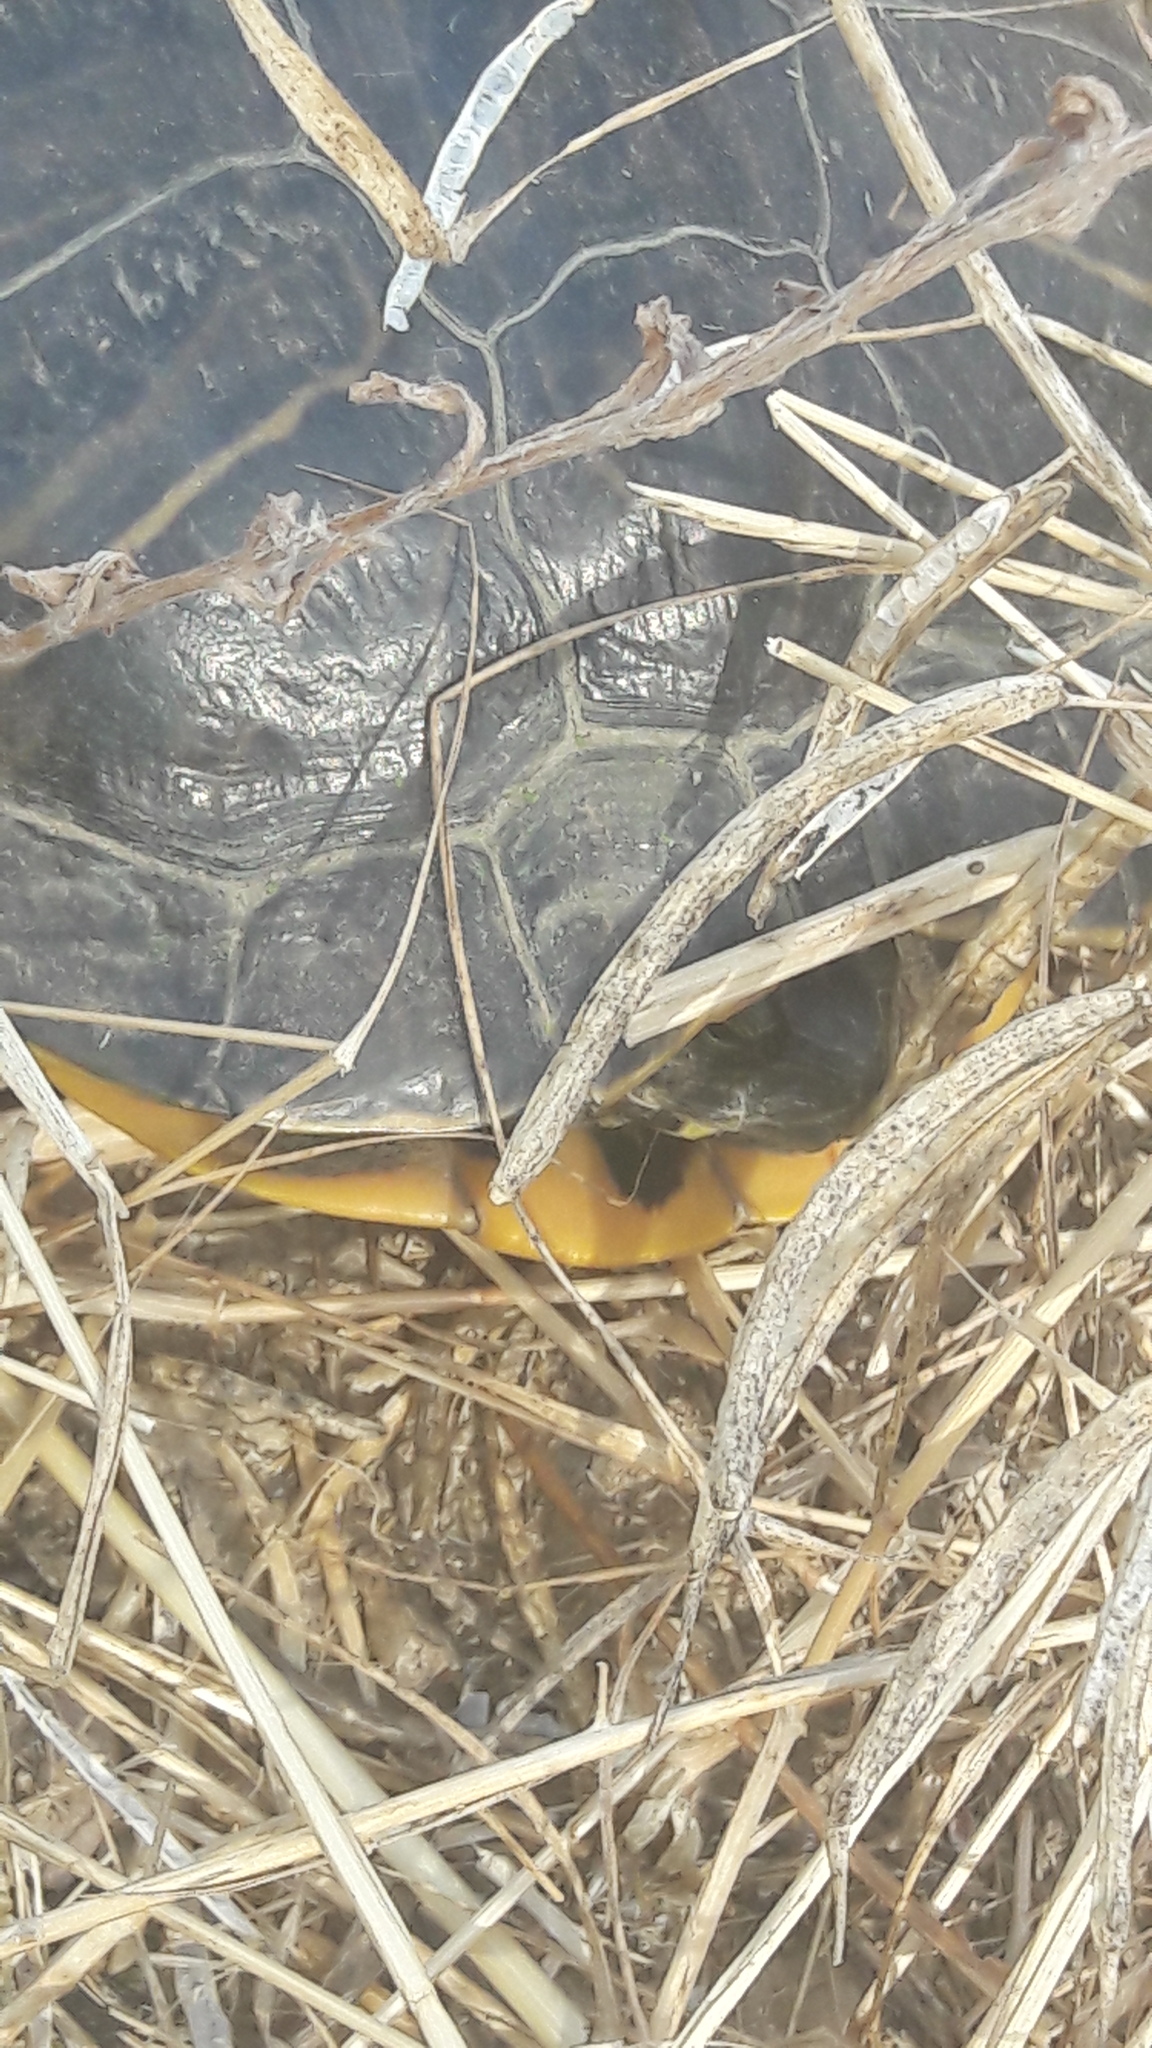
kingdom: Animalia
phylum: Chordata
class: Testudines
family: Emydidae
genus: Trachemys
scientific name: Trachemys scripta
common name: Slider
